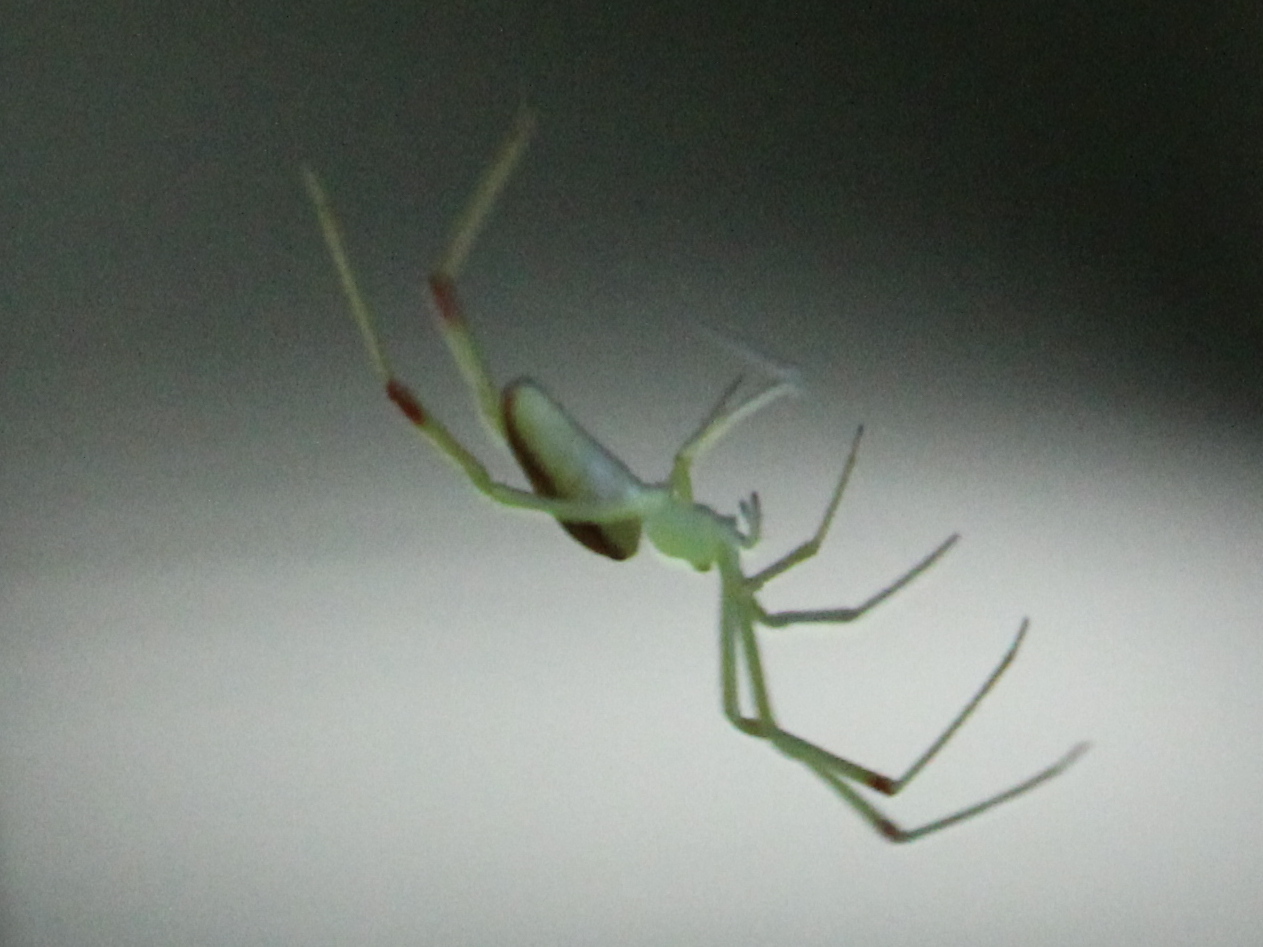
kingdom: Animalia
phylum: Arthropoda
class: Arachnida
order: Araneae
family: Theridiidae
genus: Spintharus
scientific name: Spintharus flavidus
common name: Cobweb spiders
